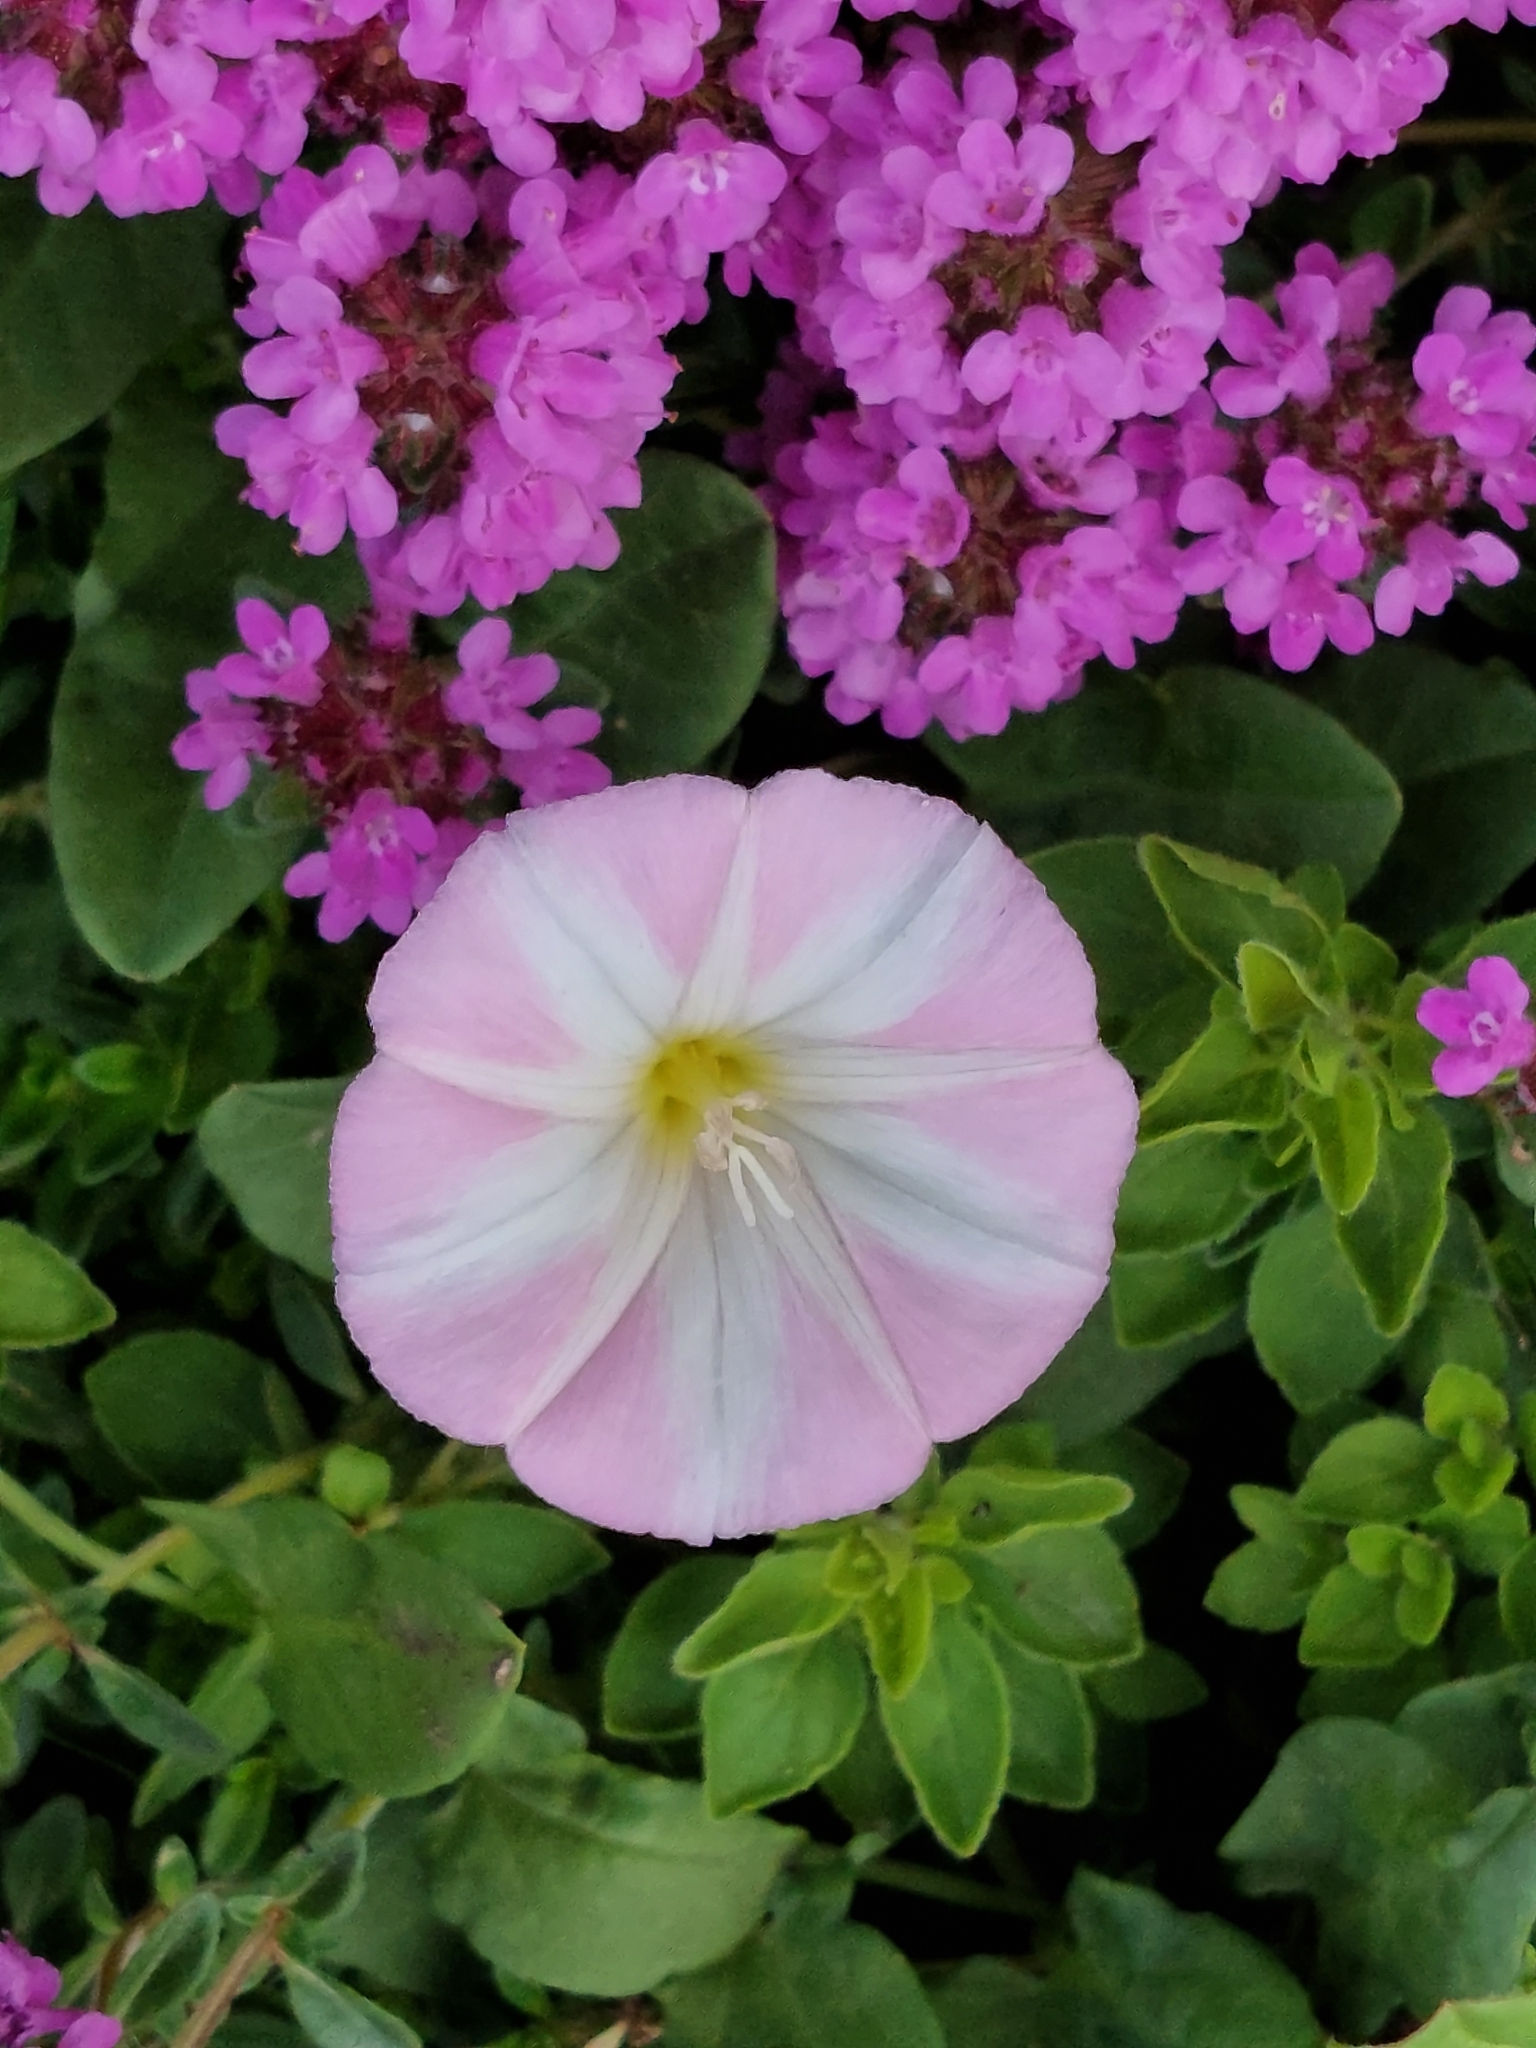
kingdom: Plantae
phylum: Tracheophyta
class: Magnoliopsida
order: Solanales
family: Convolvulaceae
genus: Convolvulus
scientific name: Convolvulus arvensis
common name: Field bindweed
